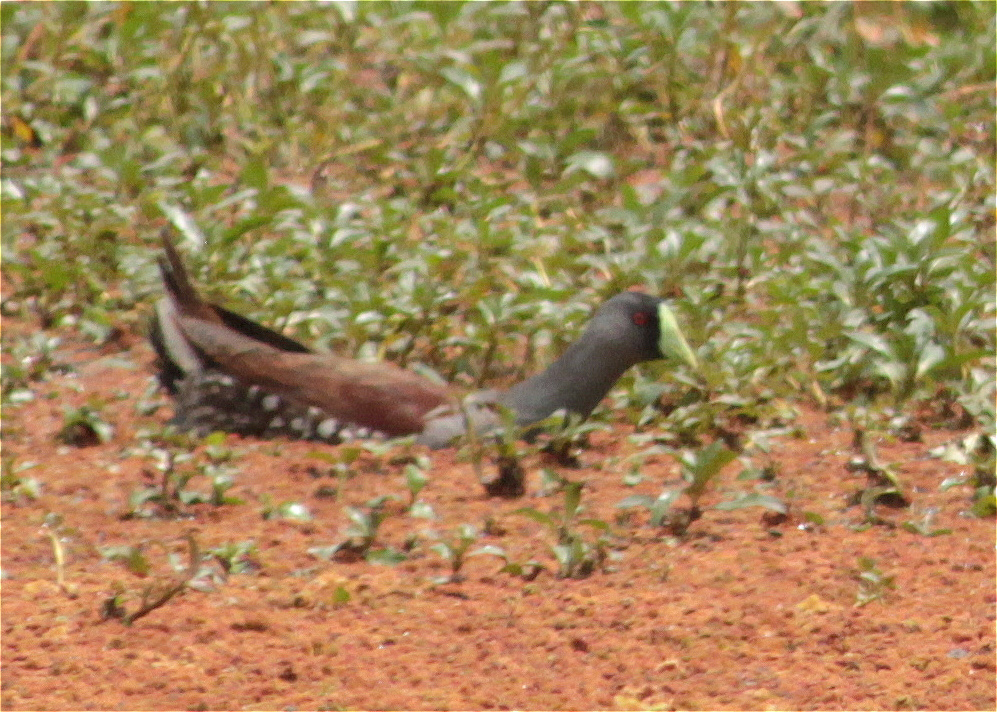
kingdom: Animalia
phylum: Chordata
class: Aves
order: Gruiformes
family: Rallidae
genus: Gallinula
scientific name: Gallinula melanops
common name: Spot-flanked gallinule
